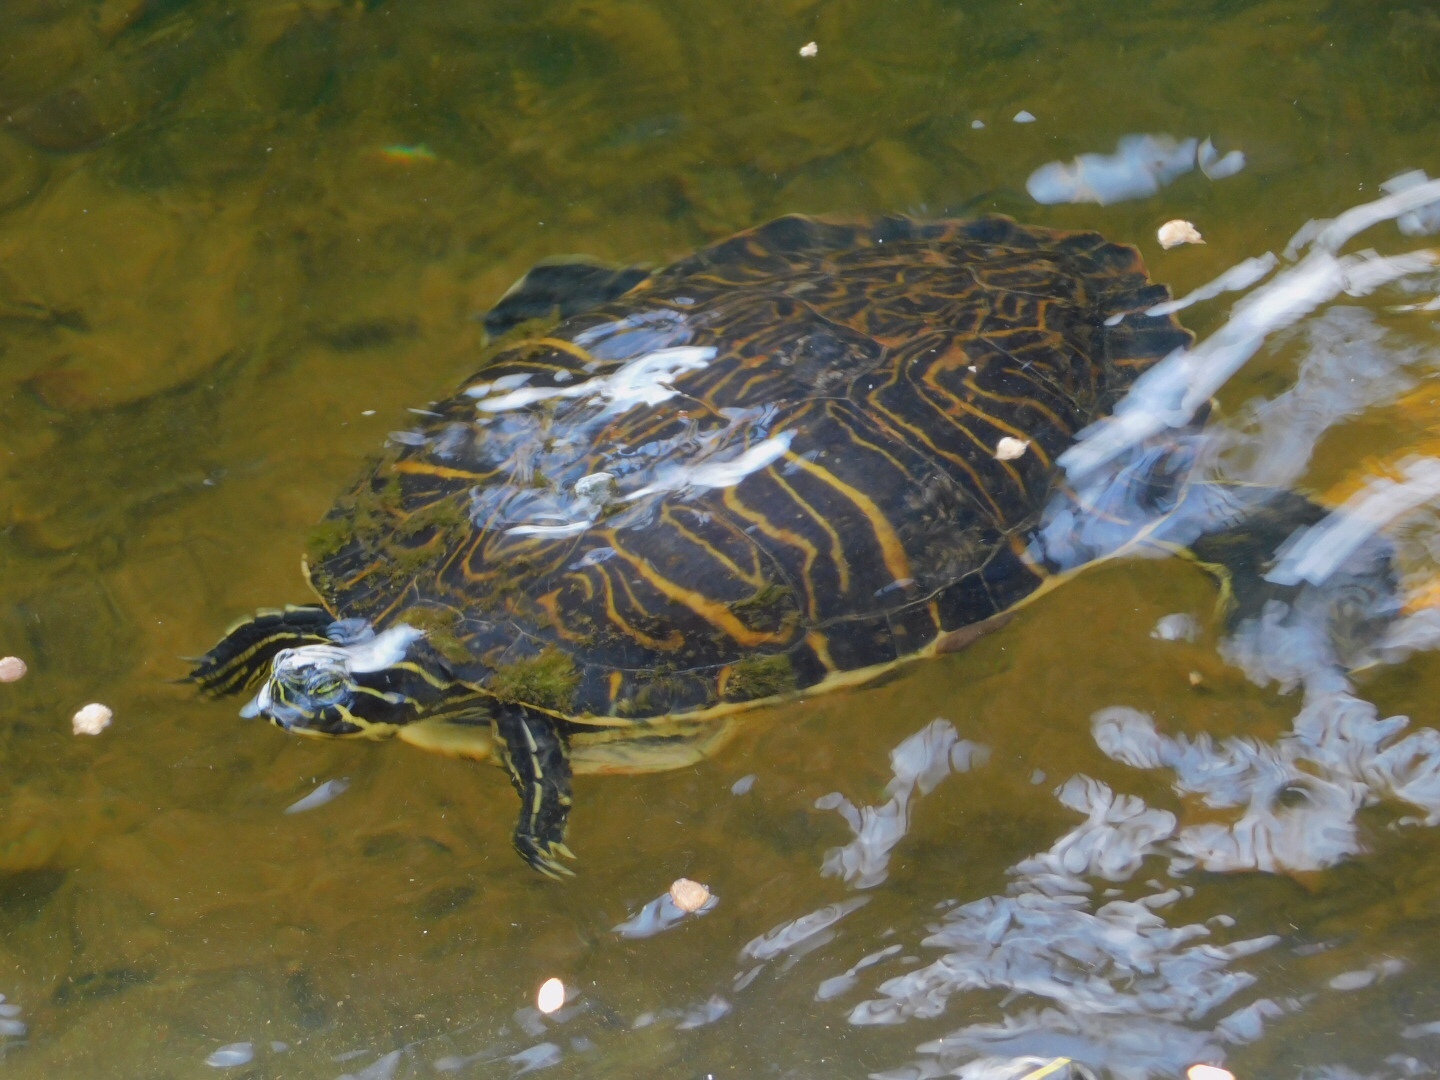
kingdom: Animalia
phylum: Chordata
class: Testudines
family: Emydidae
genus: Pseudemys
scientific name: Pseudemys peninsularis
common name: Peninsula cooter
